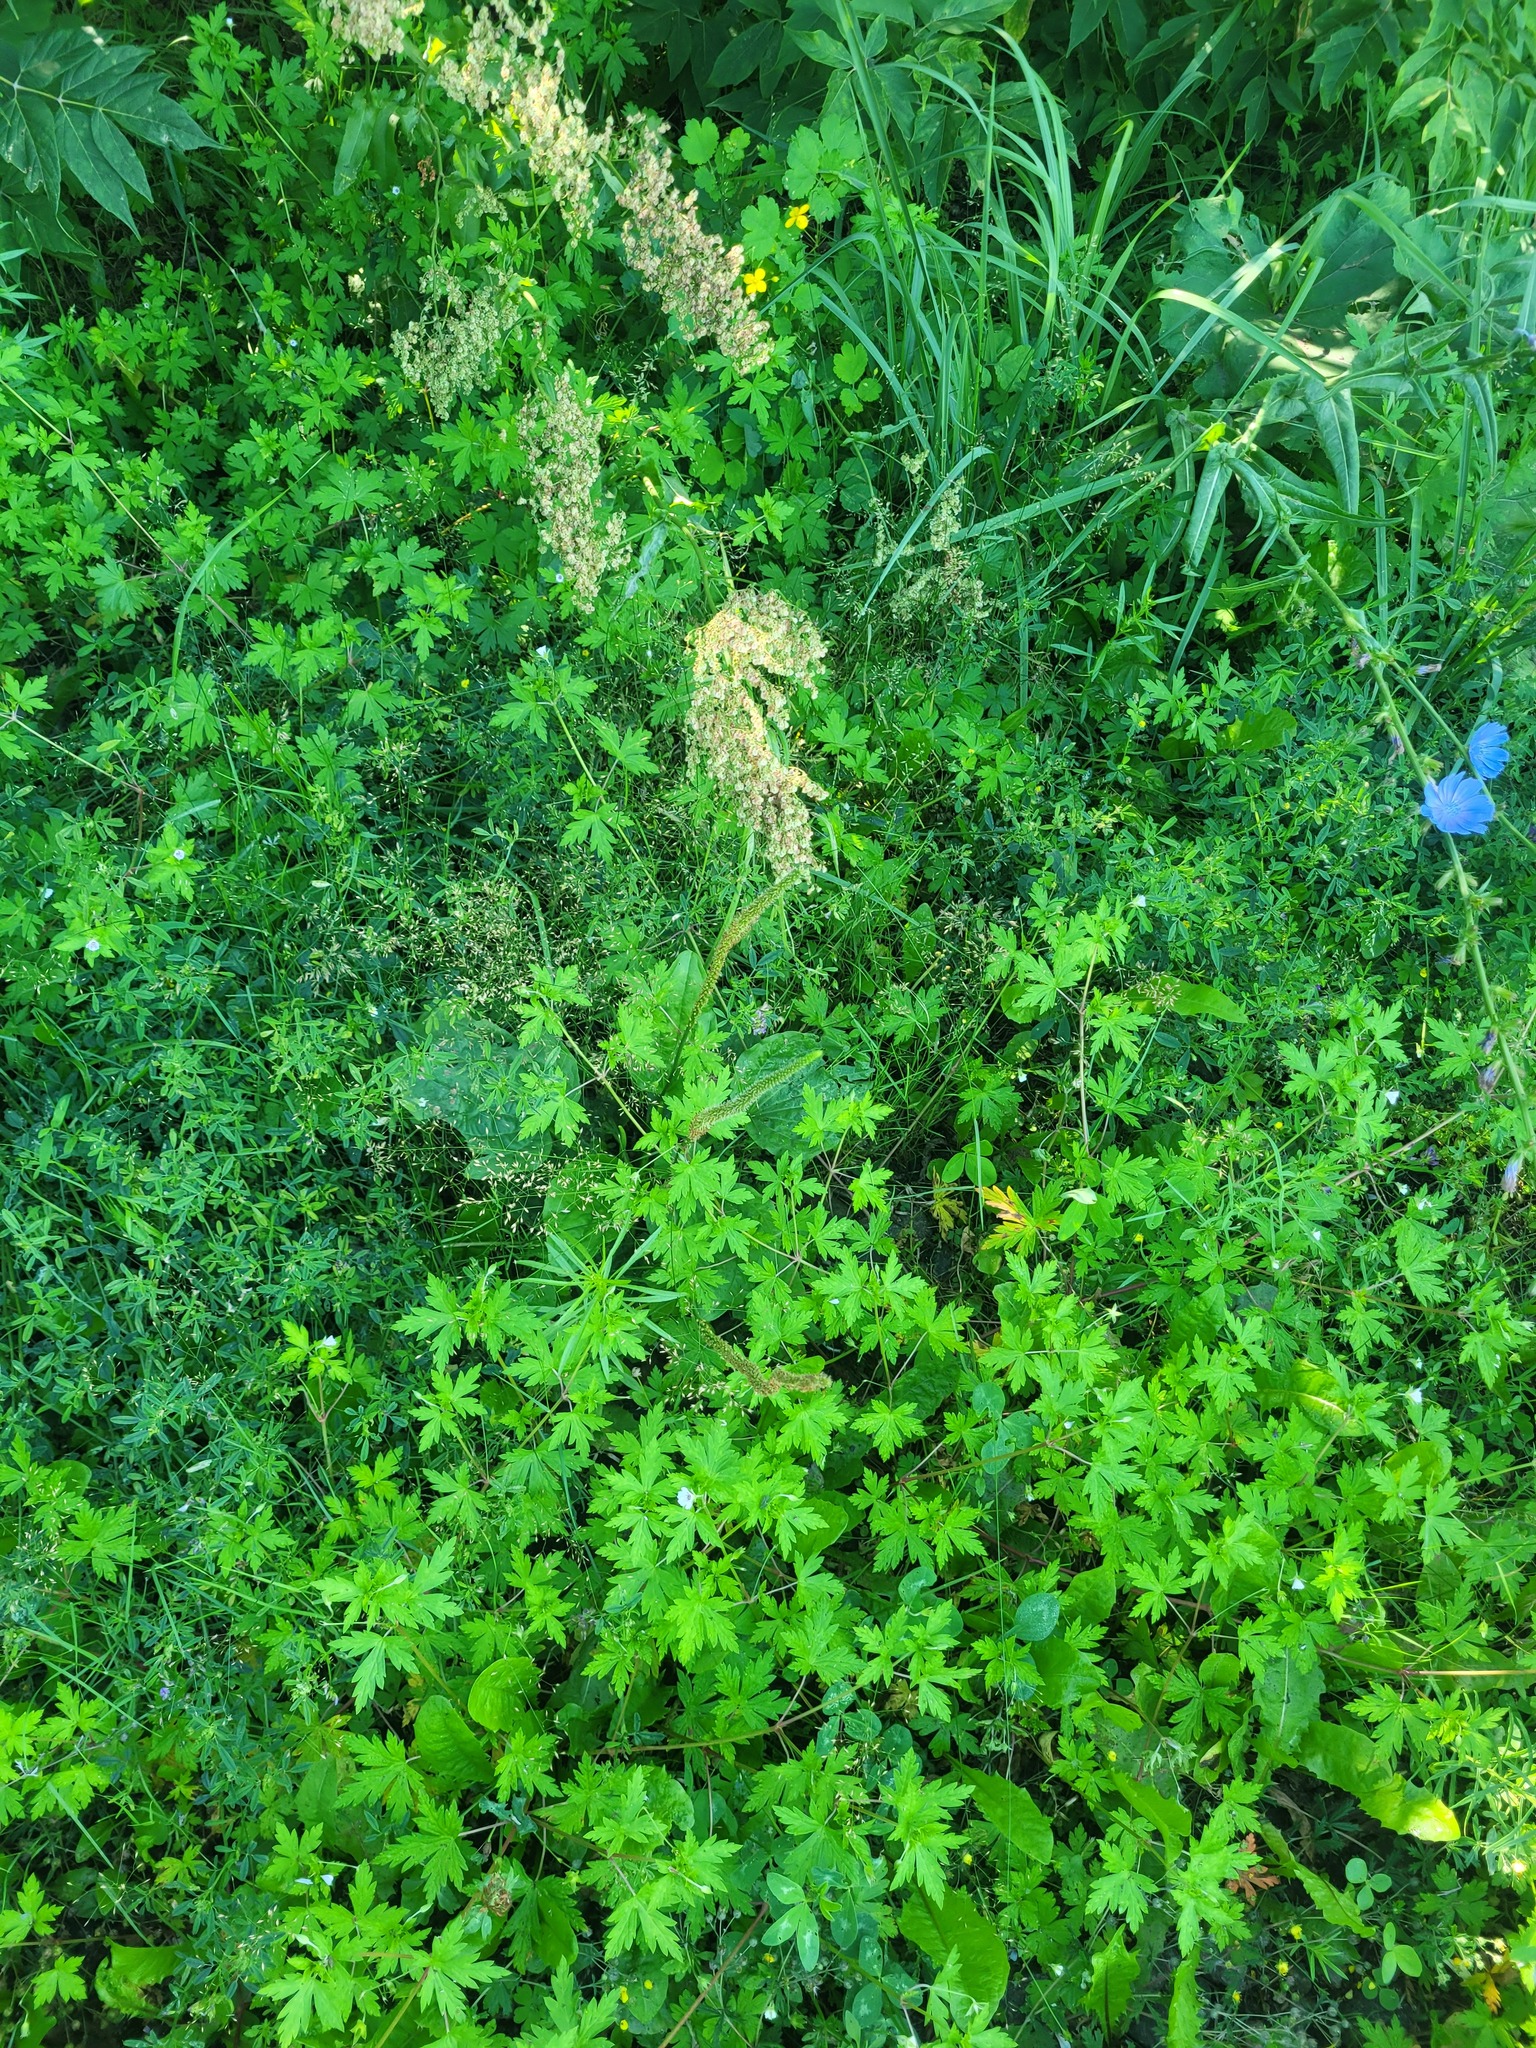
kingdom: Plantae
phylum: Tracheophyta
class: Magnoliopsida
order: Lamiales
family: Plantaginaceae
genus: Plantago
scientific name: Plantago major
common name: Common plantain
